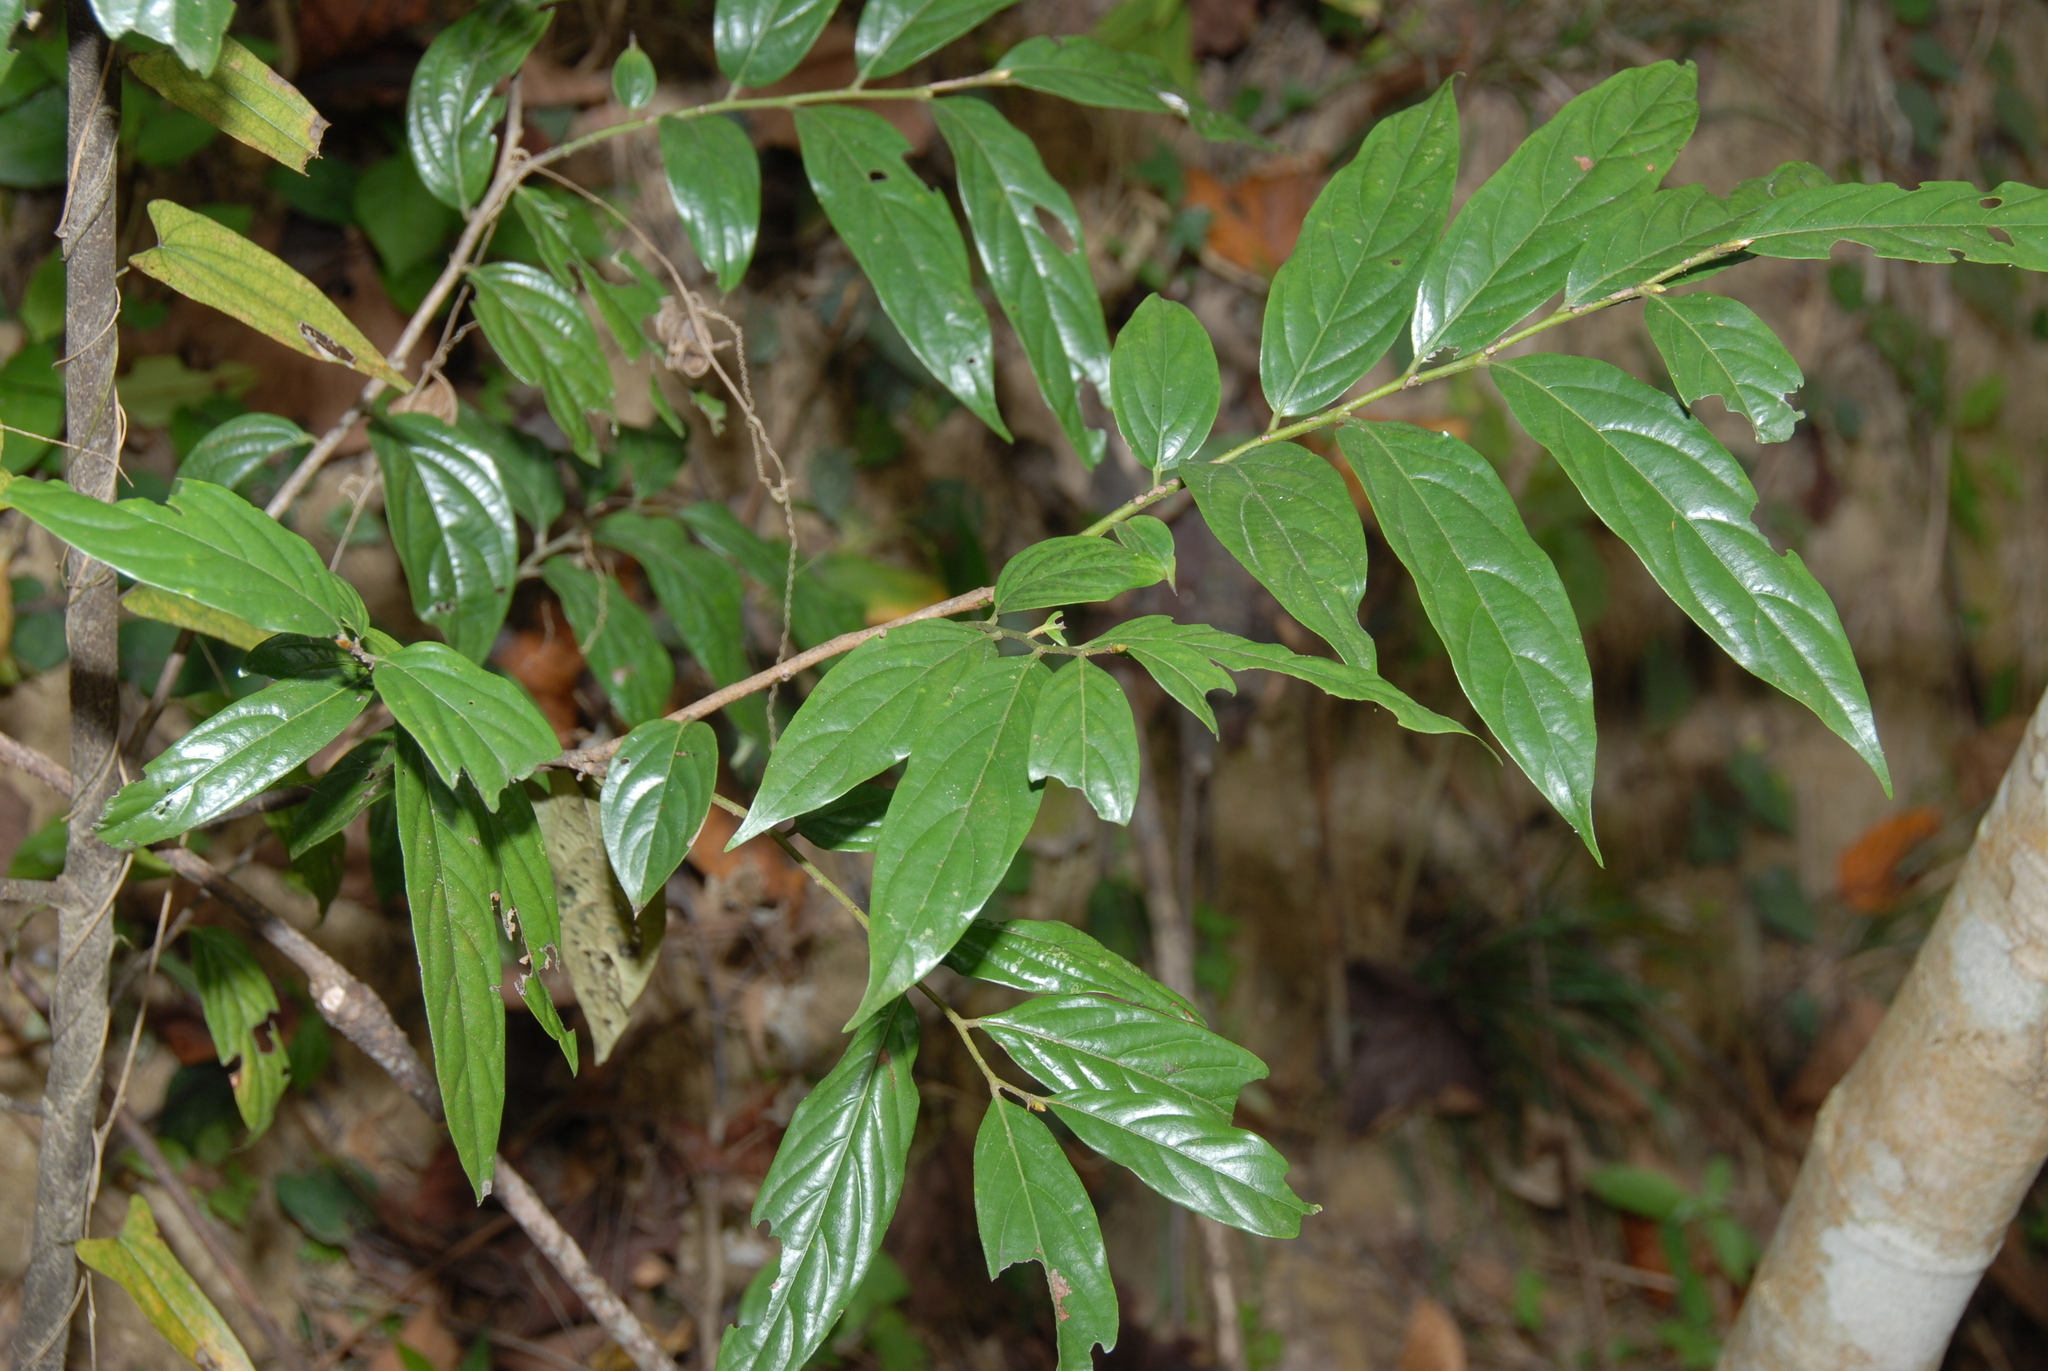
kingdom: Plantae
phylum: Tracheophyta
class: Magnoliopsida
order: Ericales
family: Ebenaceae
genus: Diospyros
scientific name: Diospyros eriantha
